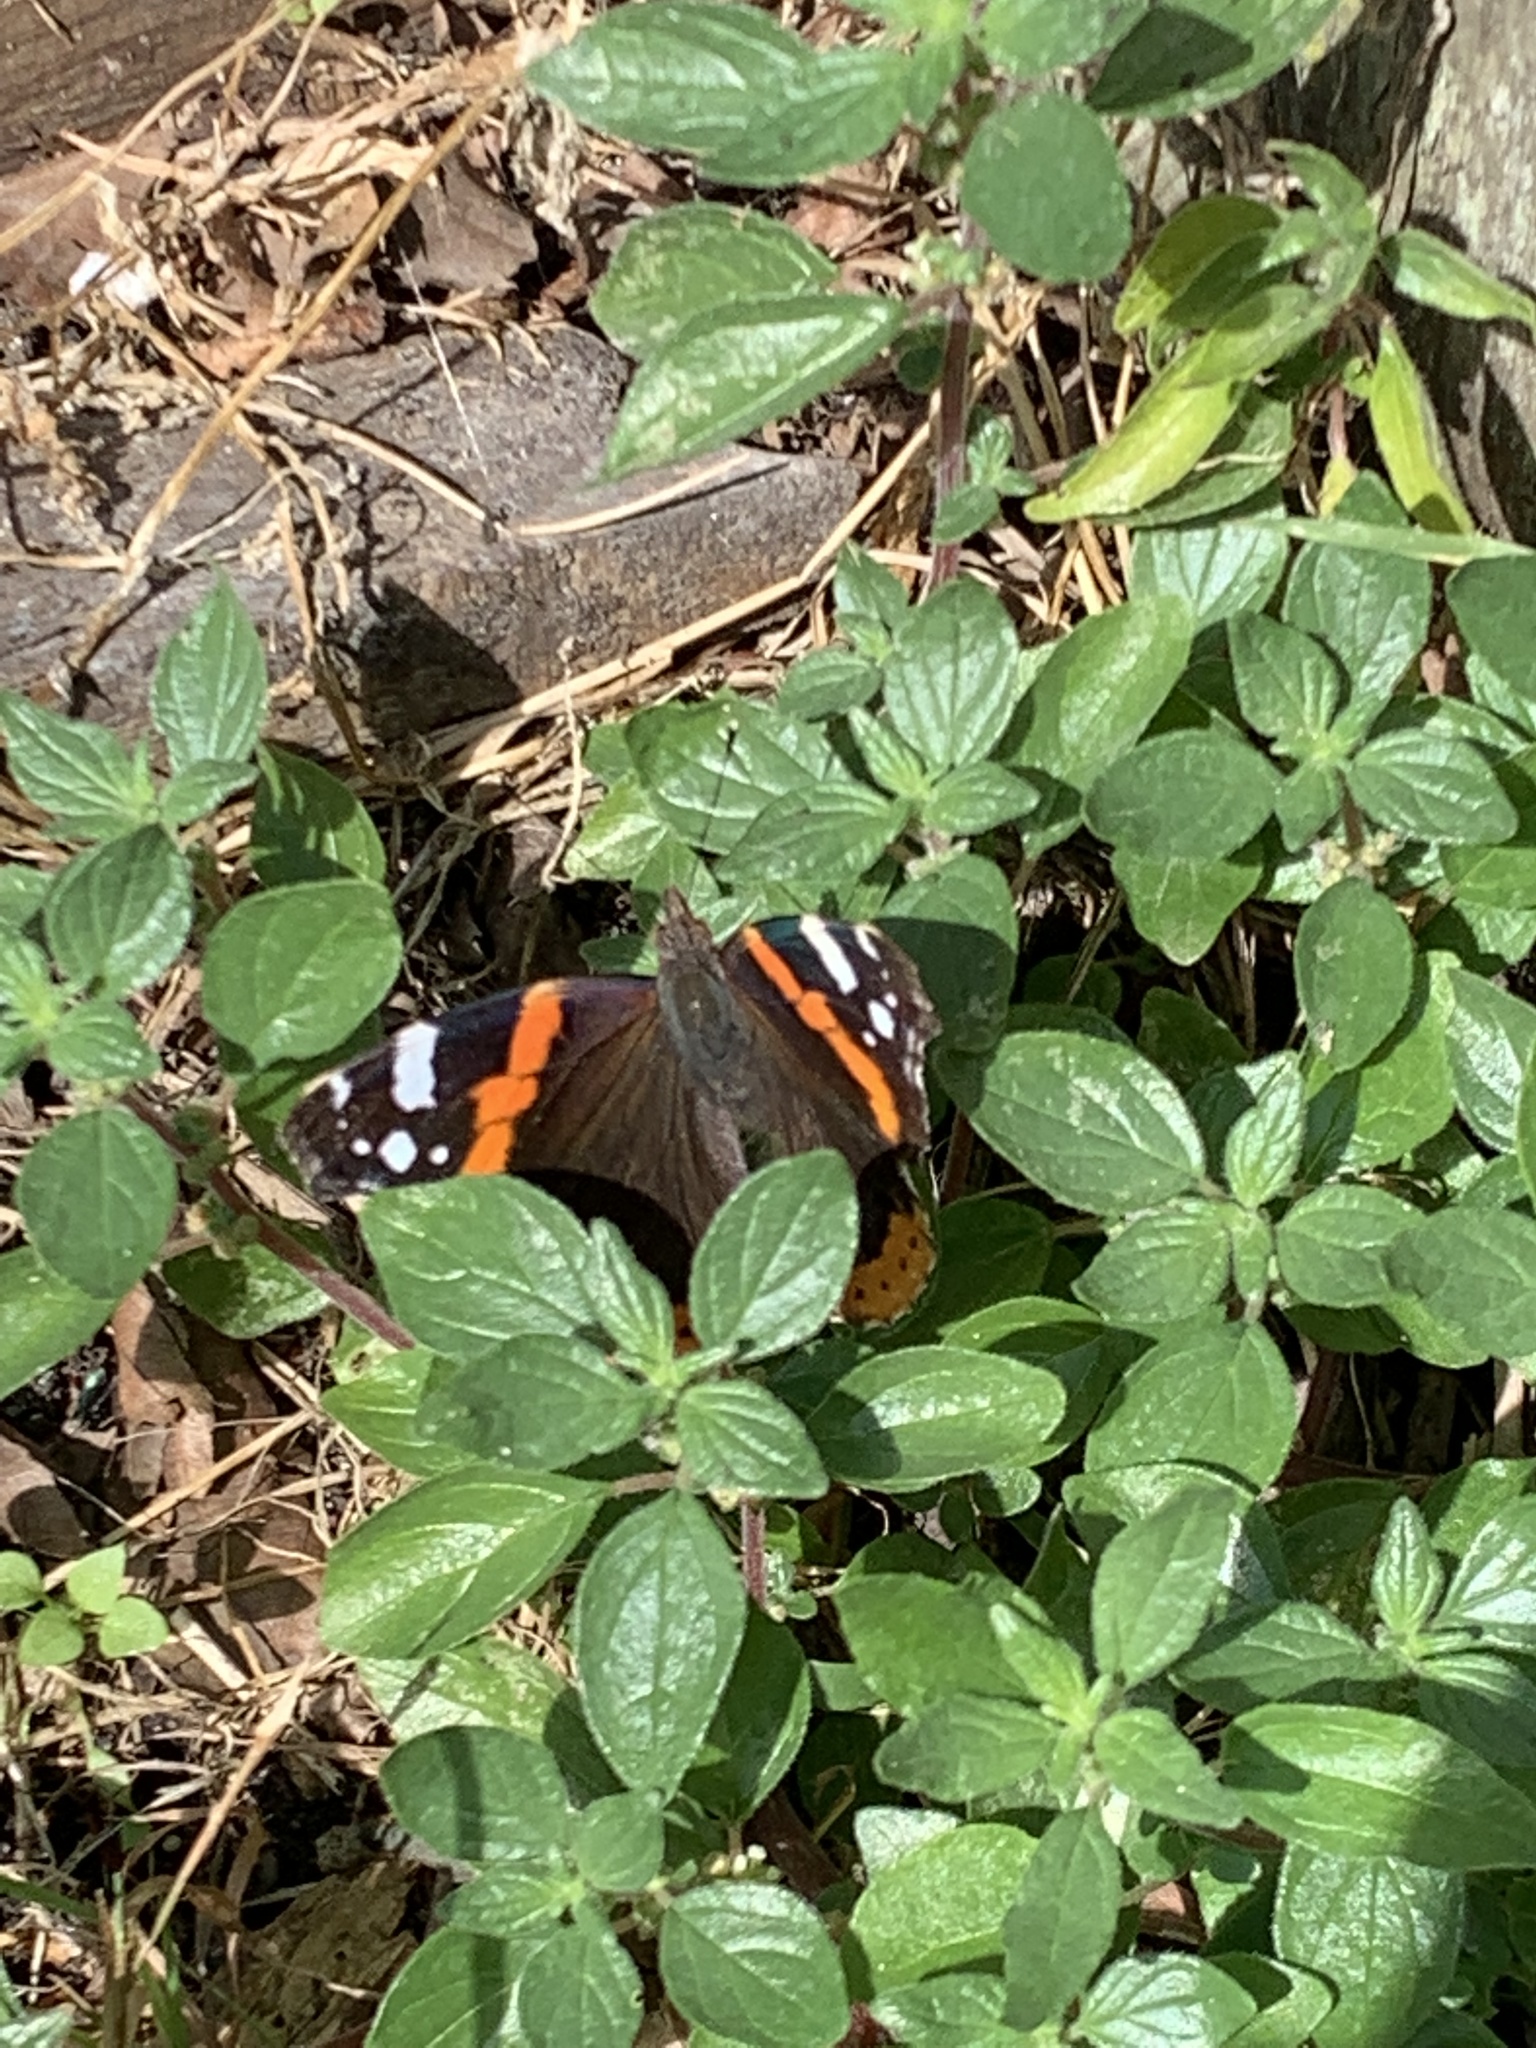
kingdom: Animalia
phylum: Arthropoda
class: Insecta
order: Lepidoptera
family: Nymphalidae
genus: Vanessa
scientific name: Vanessa atalanta
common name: Red admiral
